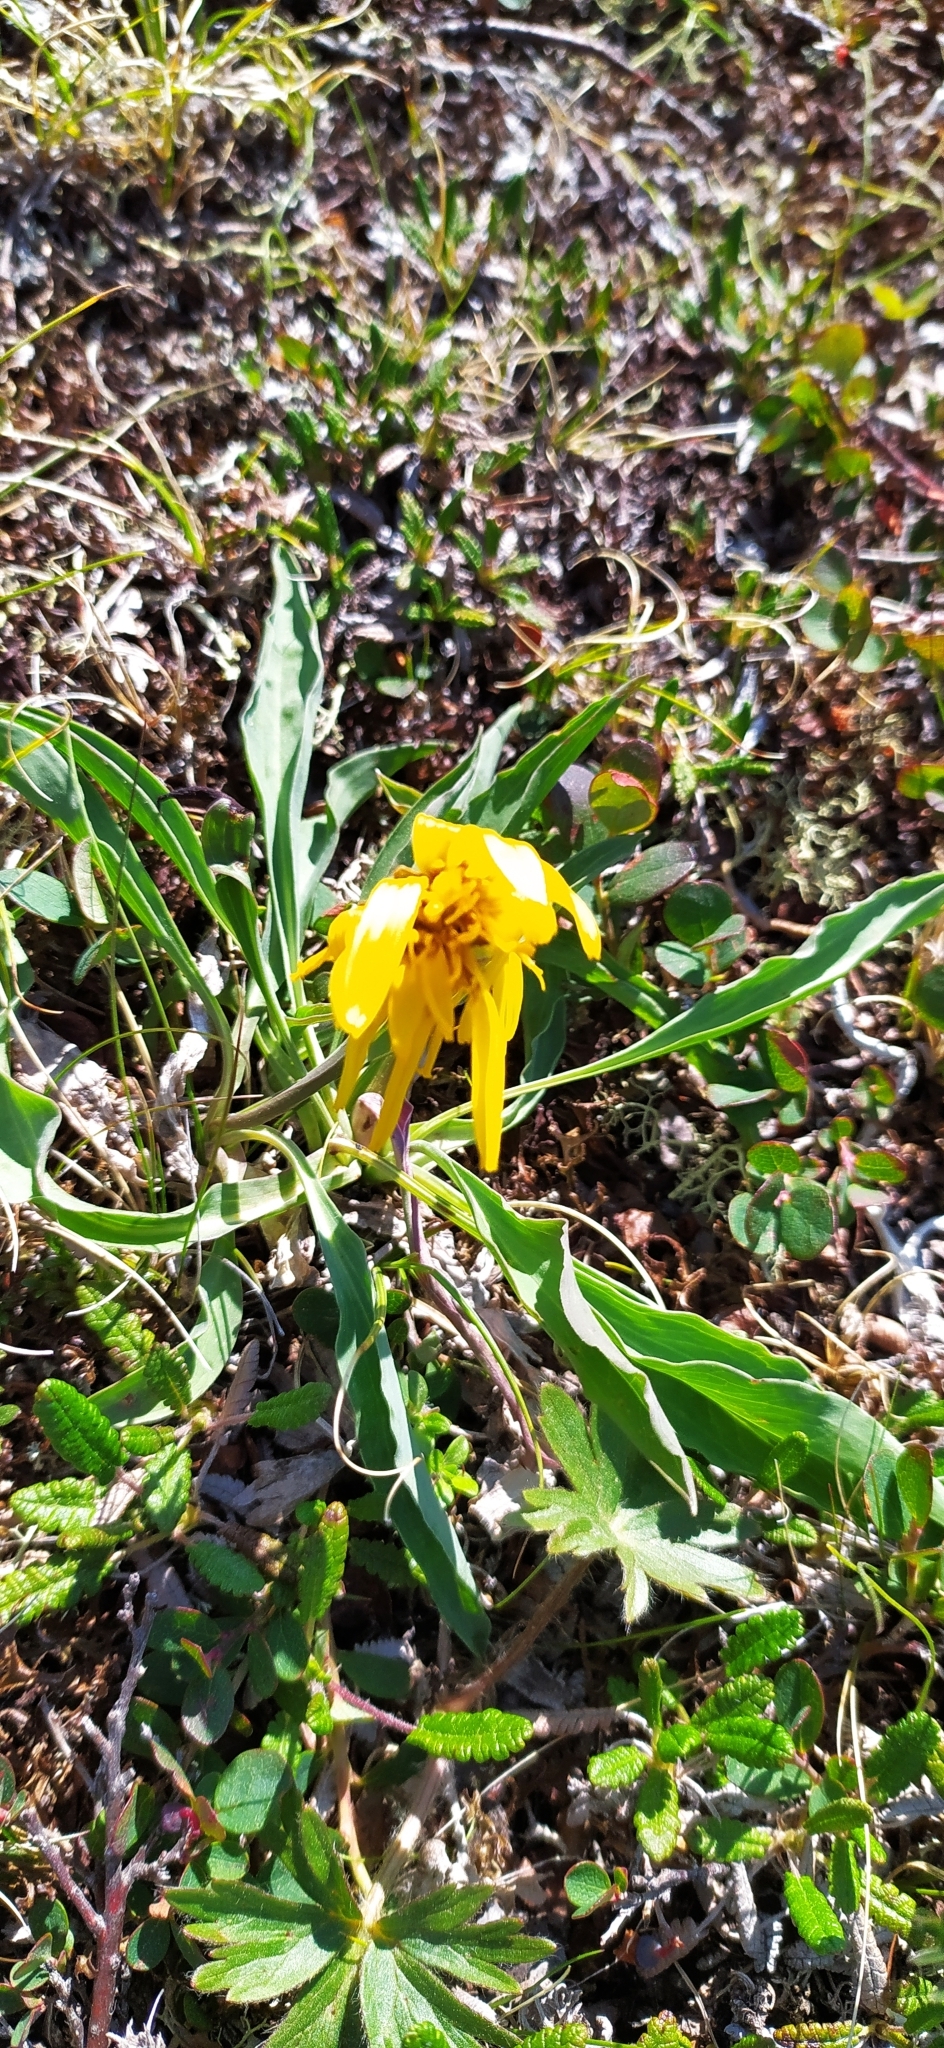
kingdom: Plantae
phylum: Tracheophyta
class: Magnoliopsida
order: Asterales
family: Asteraceae
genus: Scorzonera
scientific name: Scorzonera glabra
